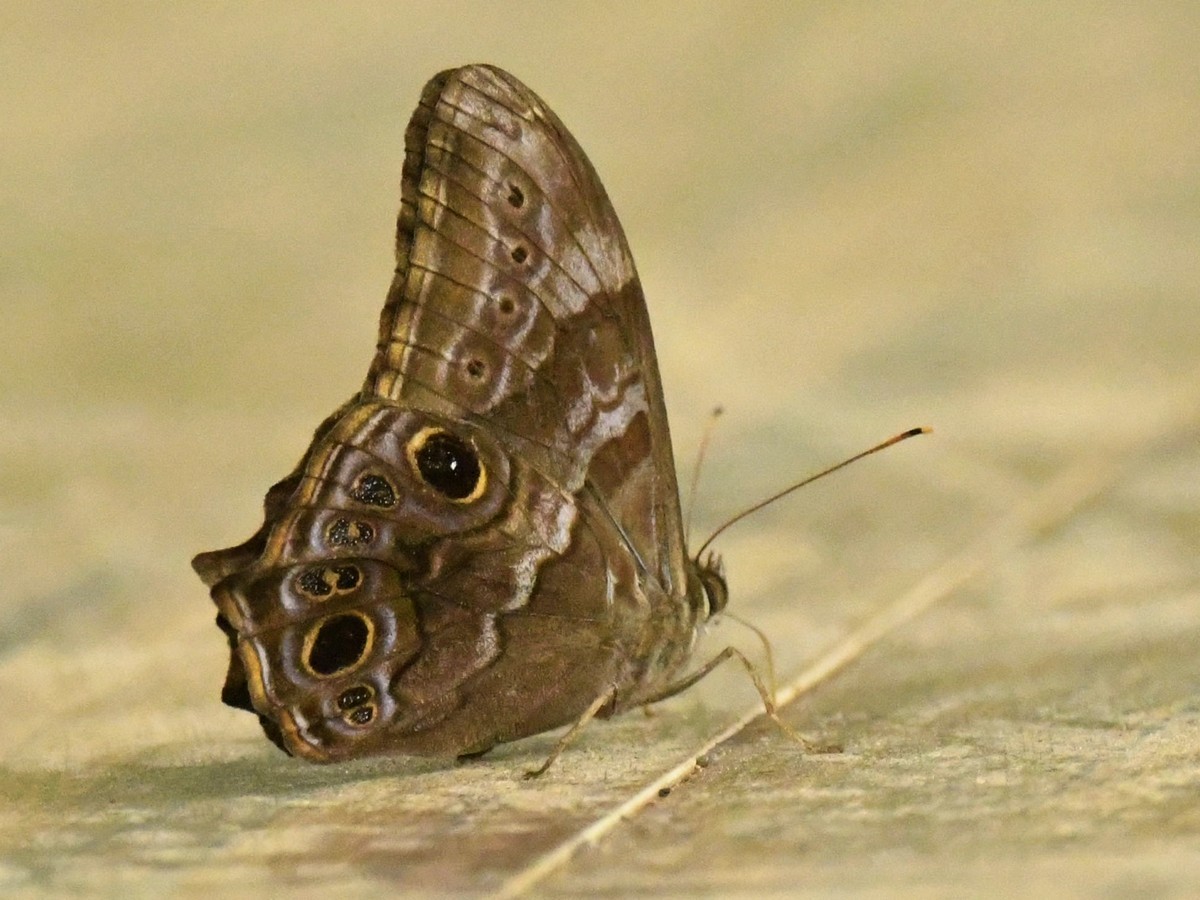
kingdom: Animalia
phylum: Arthropoda
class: Insecta
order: Lepidoptera
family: Nymphalidae
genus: Lethe
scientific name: Lethe drypetis
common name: Tamil treebrown
